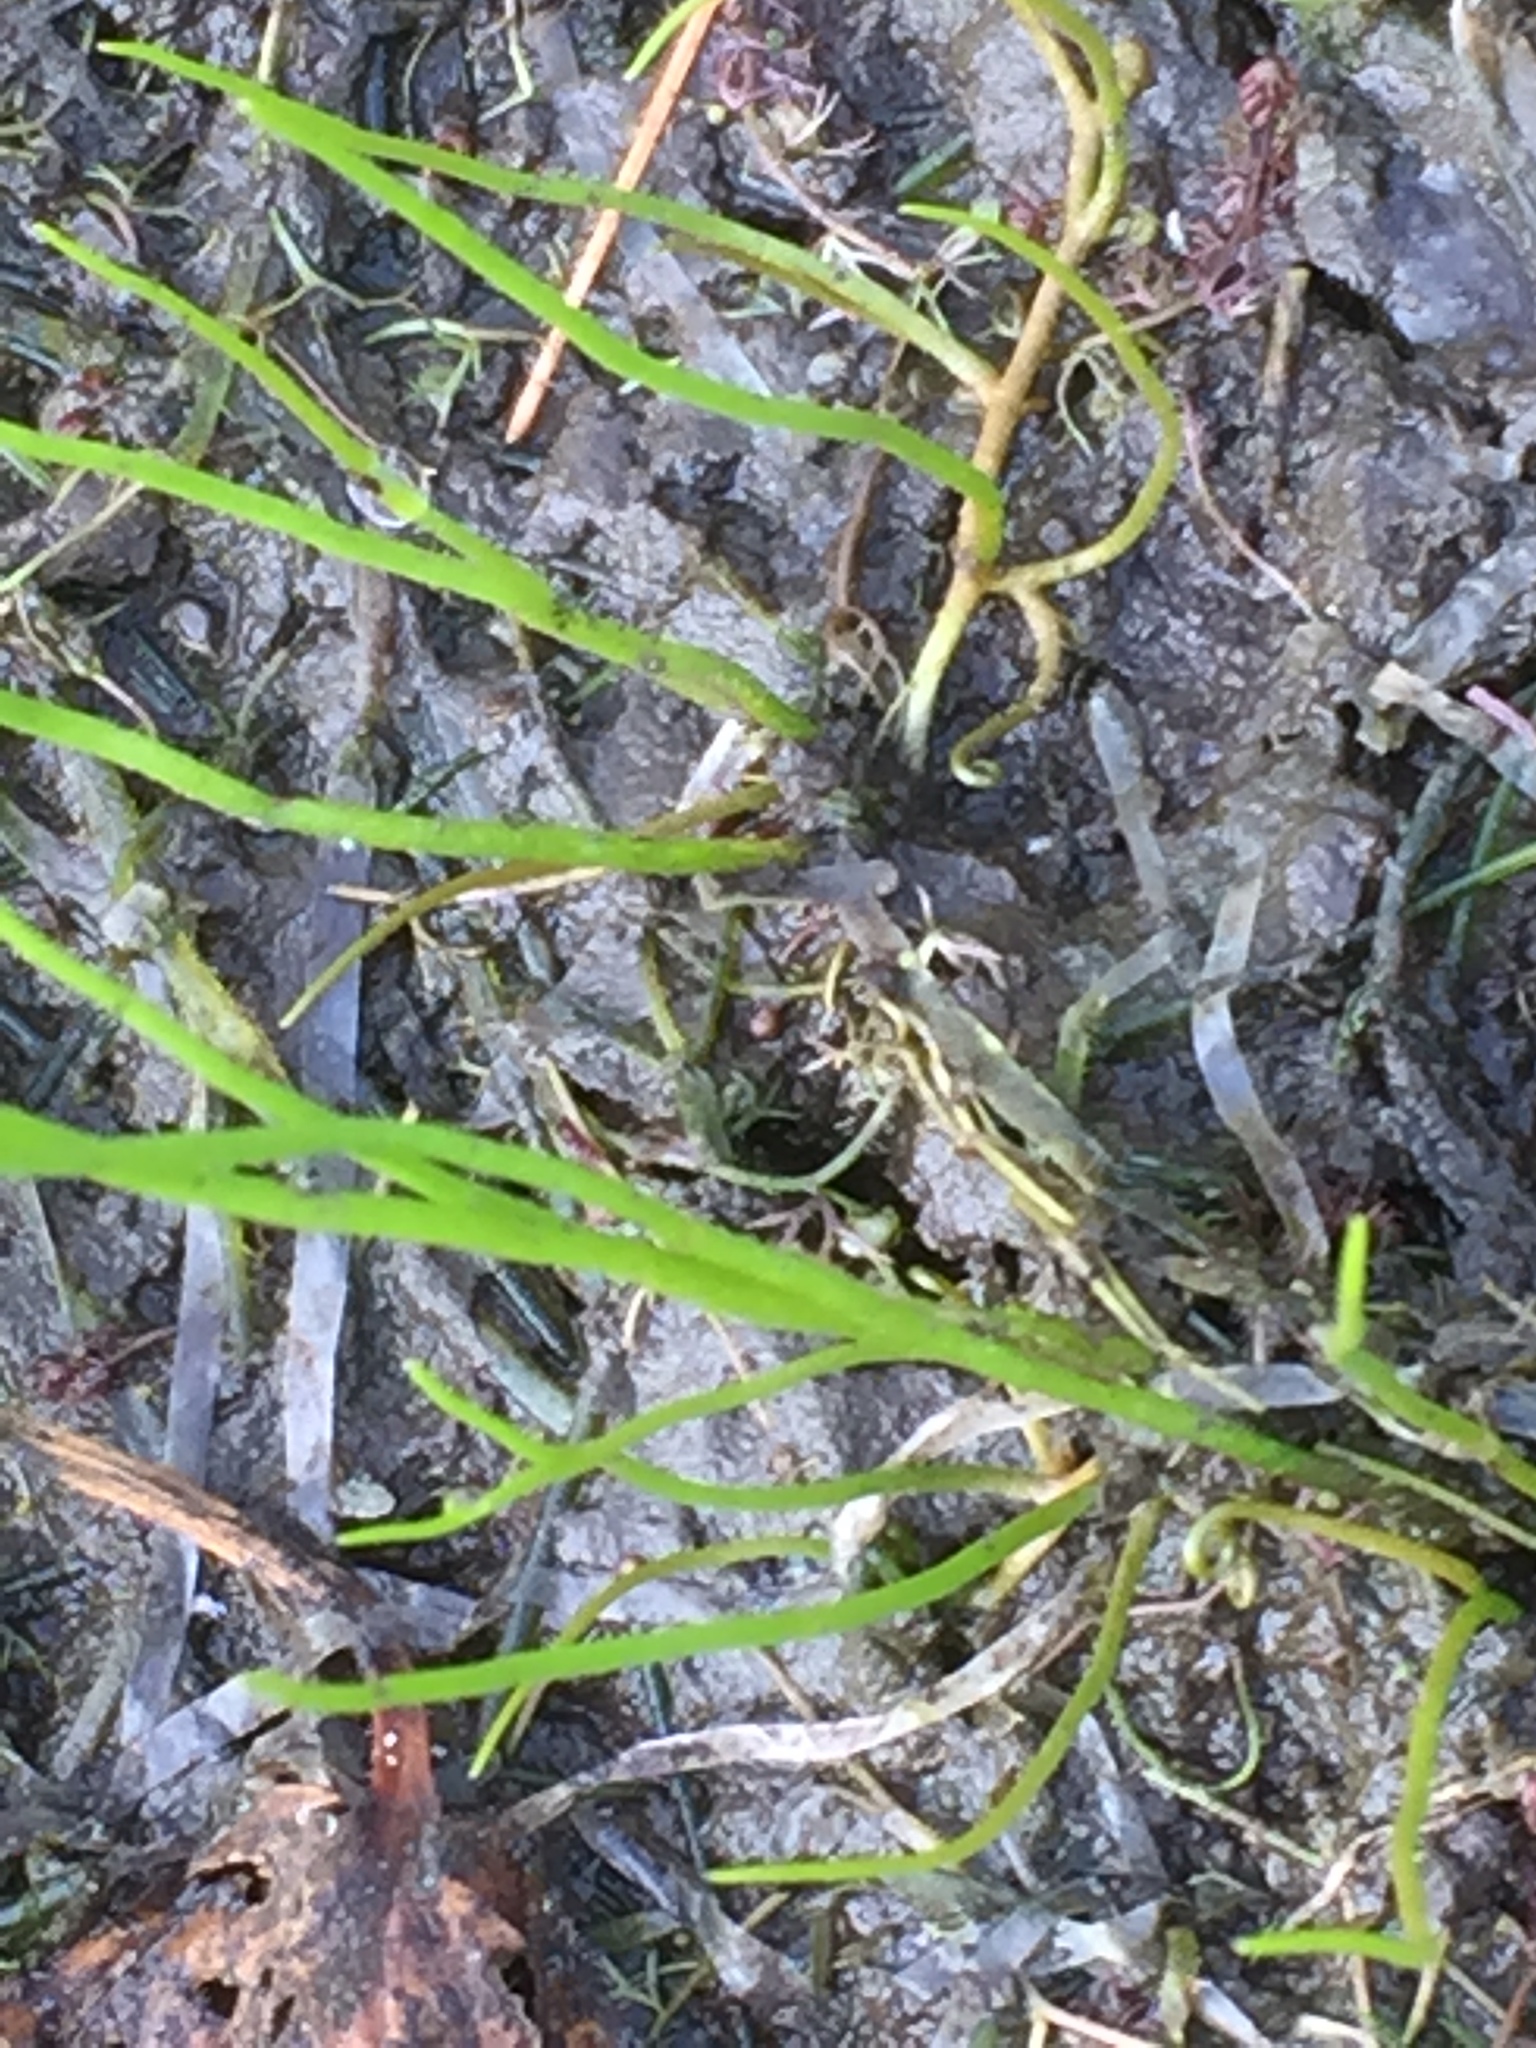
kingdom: Plantae
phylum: Tracheophyta
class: Polypodiopsida
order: Salviniales
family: Marsileaceae
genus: Pilularia
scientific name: Pilularia globulifera
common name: Pillwort
